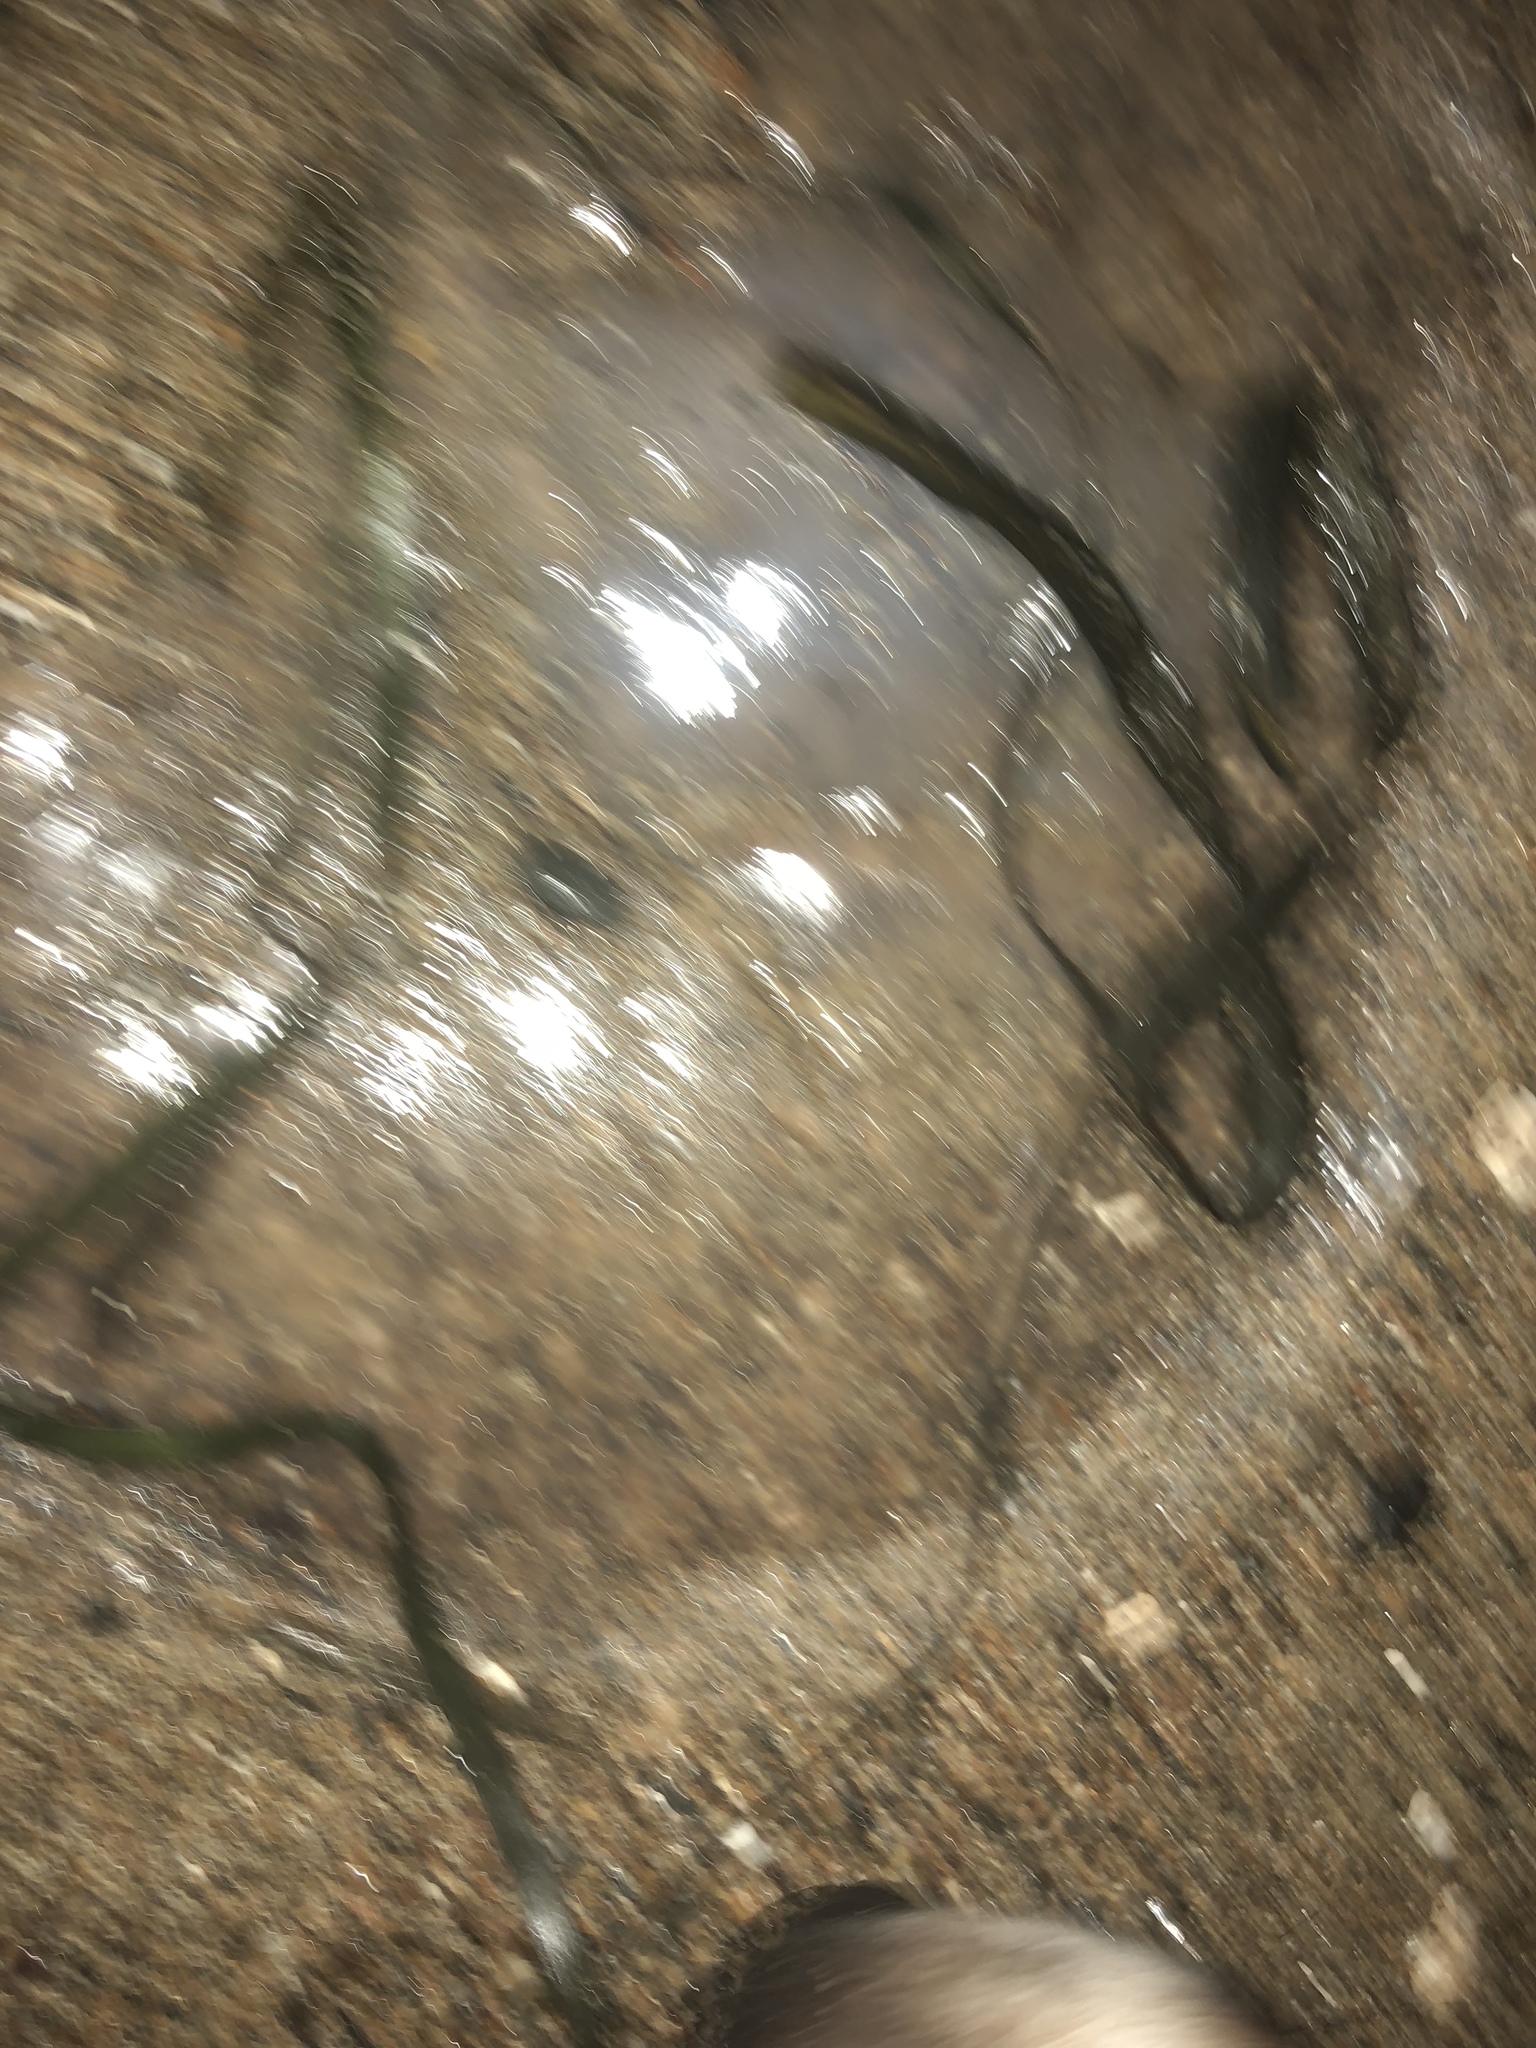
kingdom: Animalia
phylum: Cnidaria
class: Scyphozoa
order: Semaeostomeae
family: Ulmaridae
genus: Aurelia
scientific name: Aurelia labiata
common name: Pacific moon jelly
